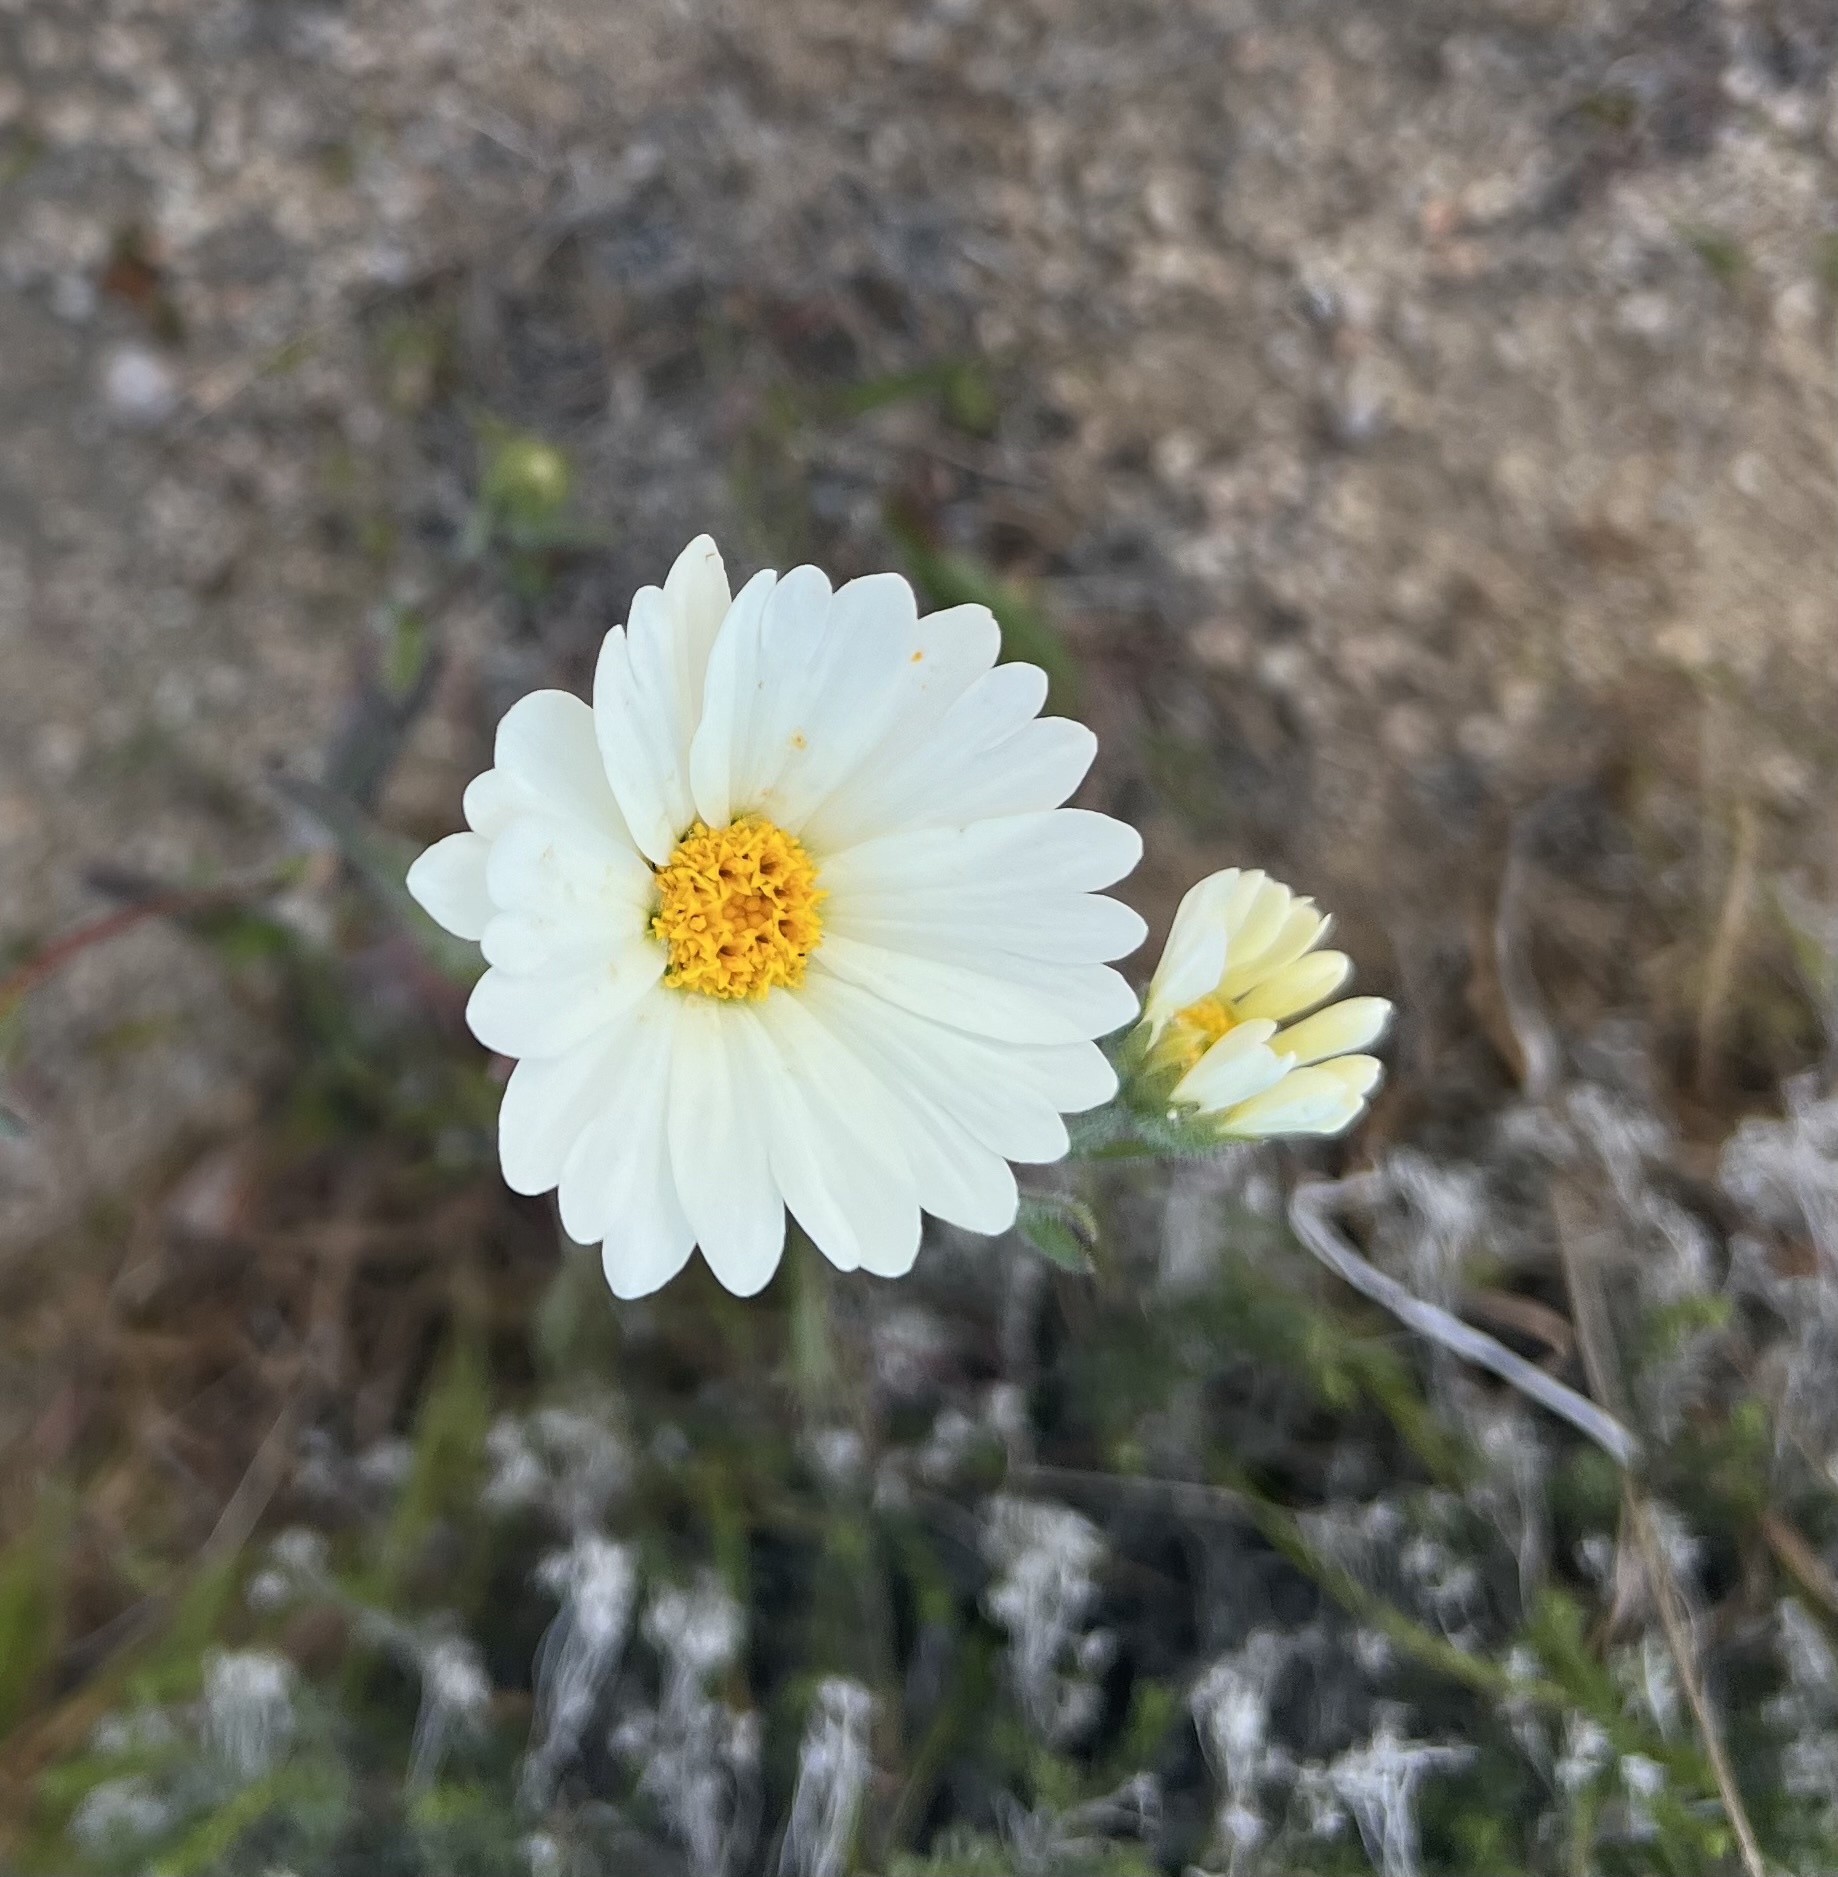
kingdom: Plantae
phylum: Tracheophyta
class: Magnoliopsida
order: Asterales
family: Asteraceae
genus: Layia
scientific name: Layia glandulosa
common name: White layia
